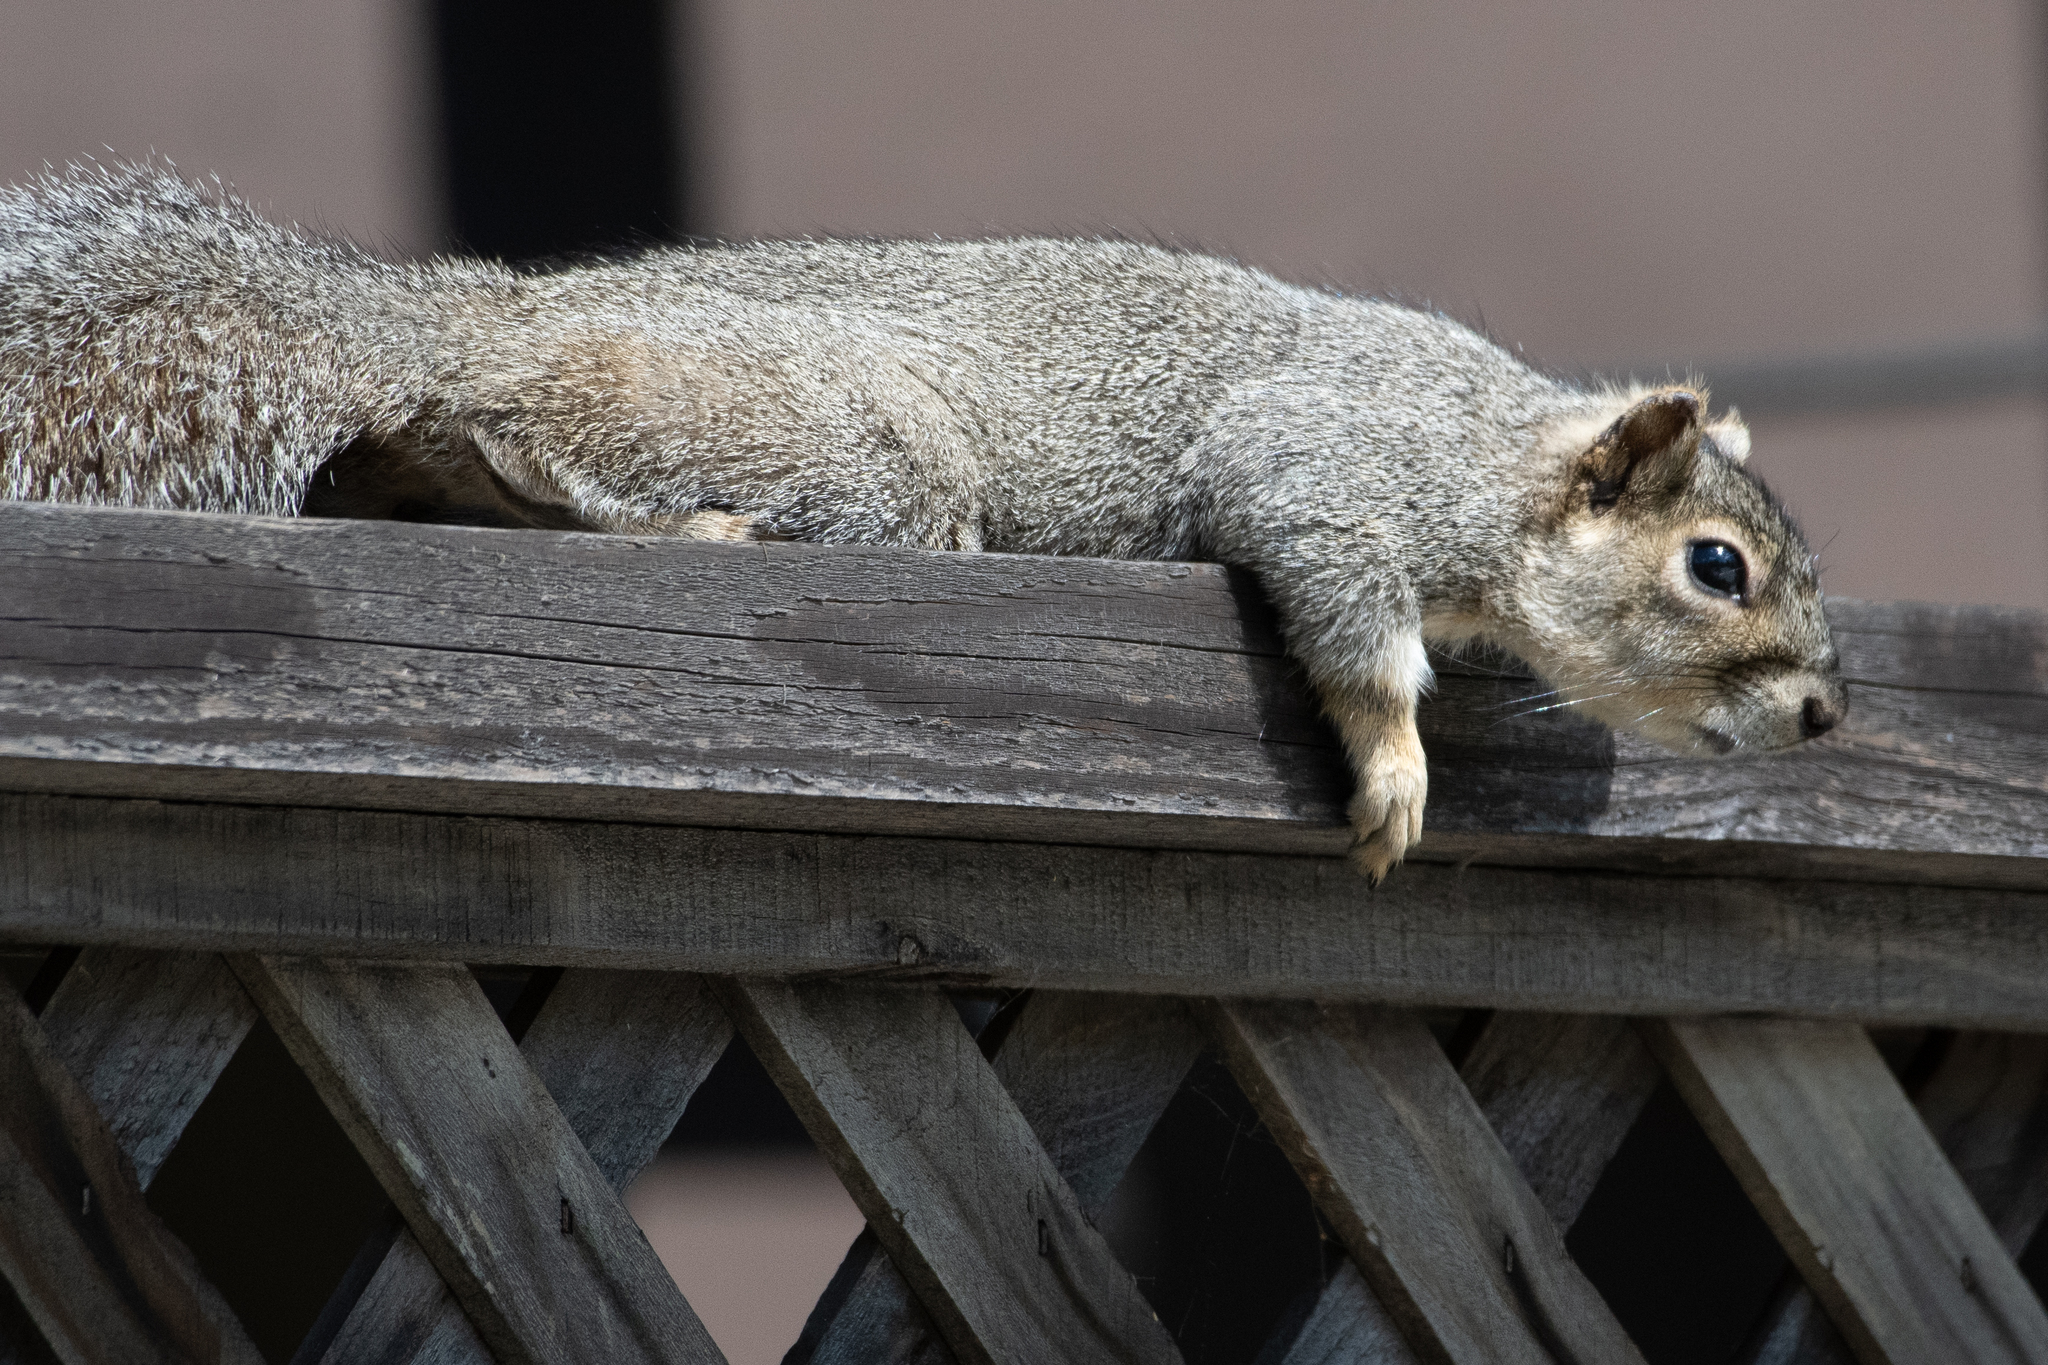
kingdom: Animalia
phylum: Chordata
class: Mammalia
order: Rodentia
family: Sciuridae
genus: Sciurus
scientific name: Sciurus niger
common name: Fox squirrel
